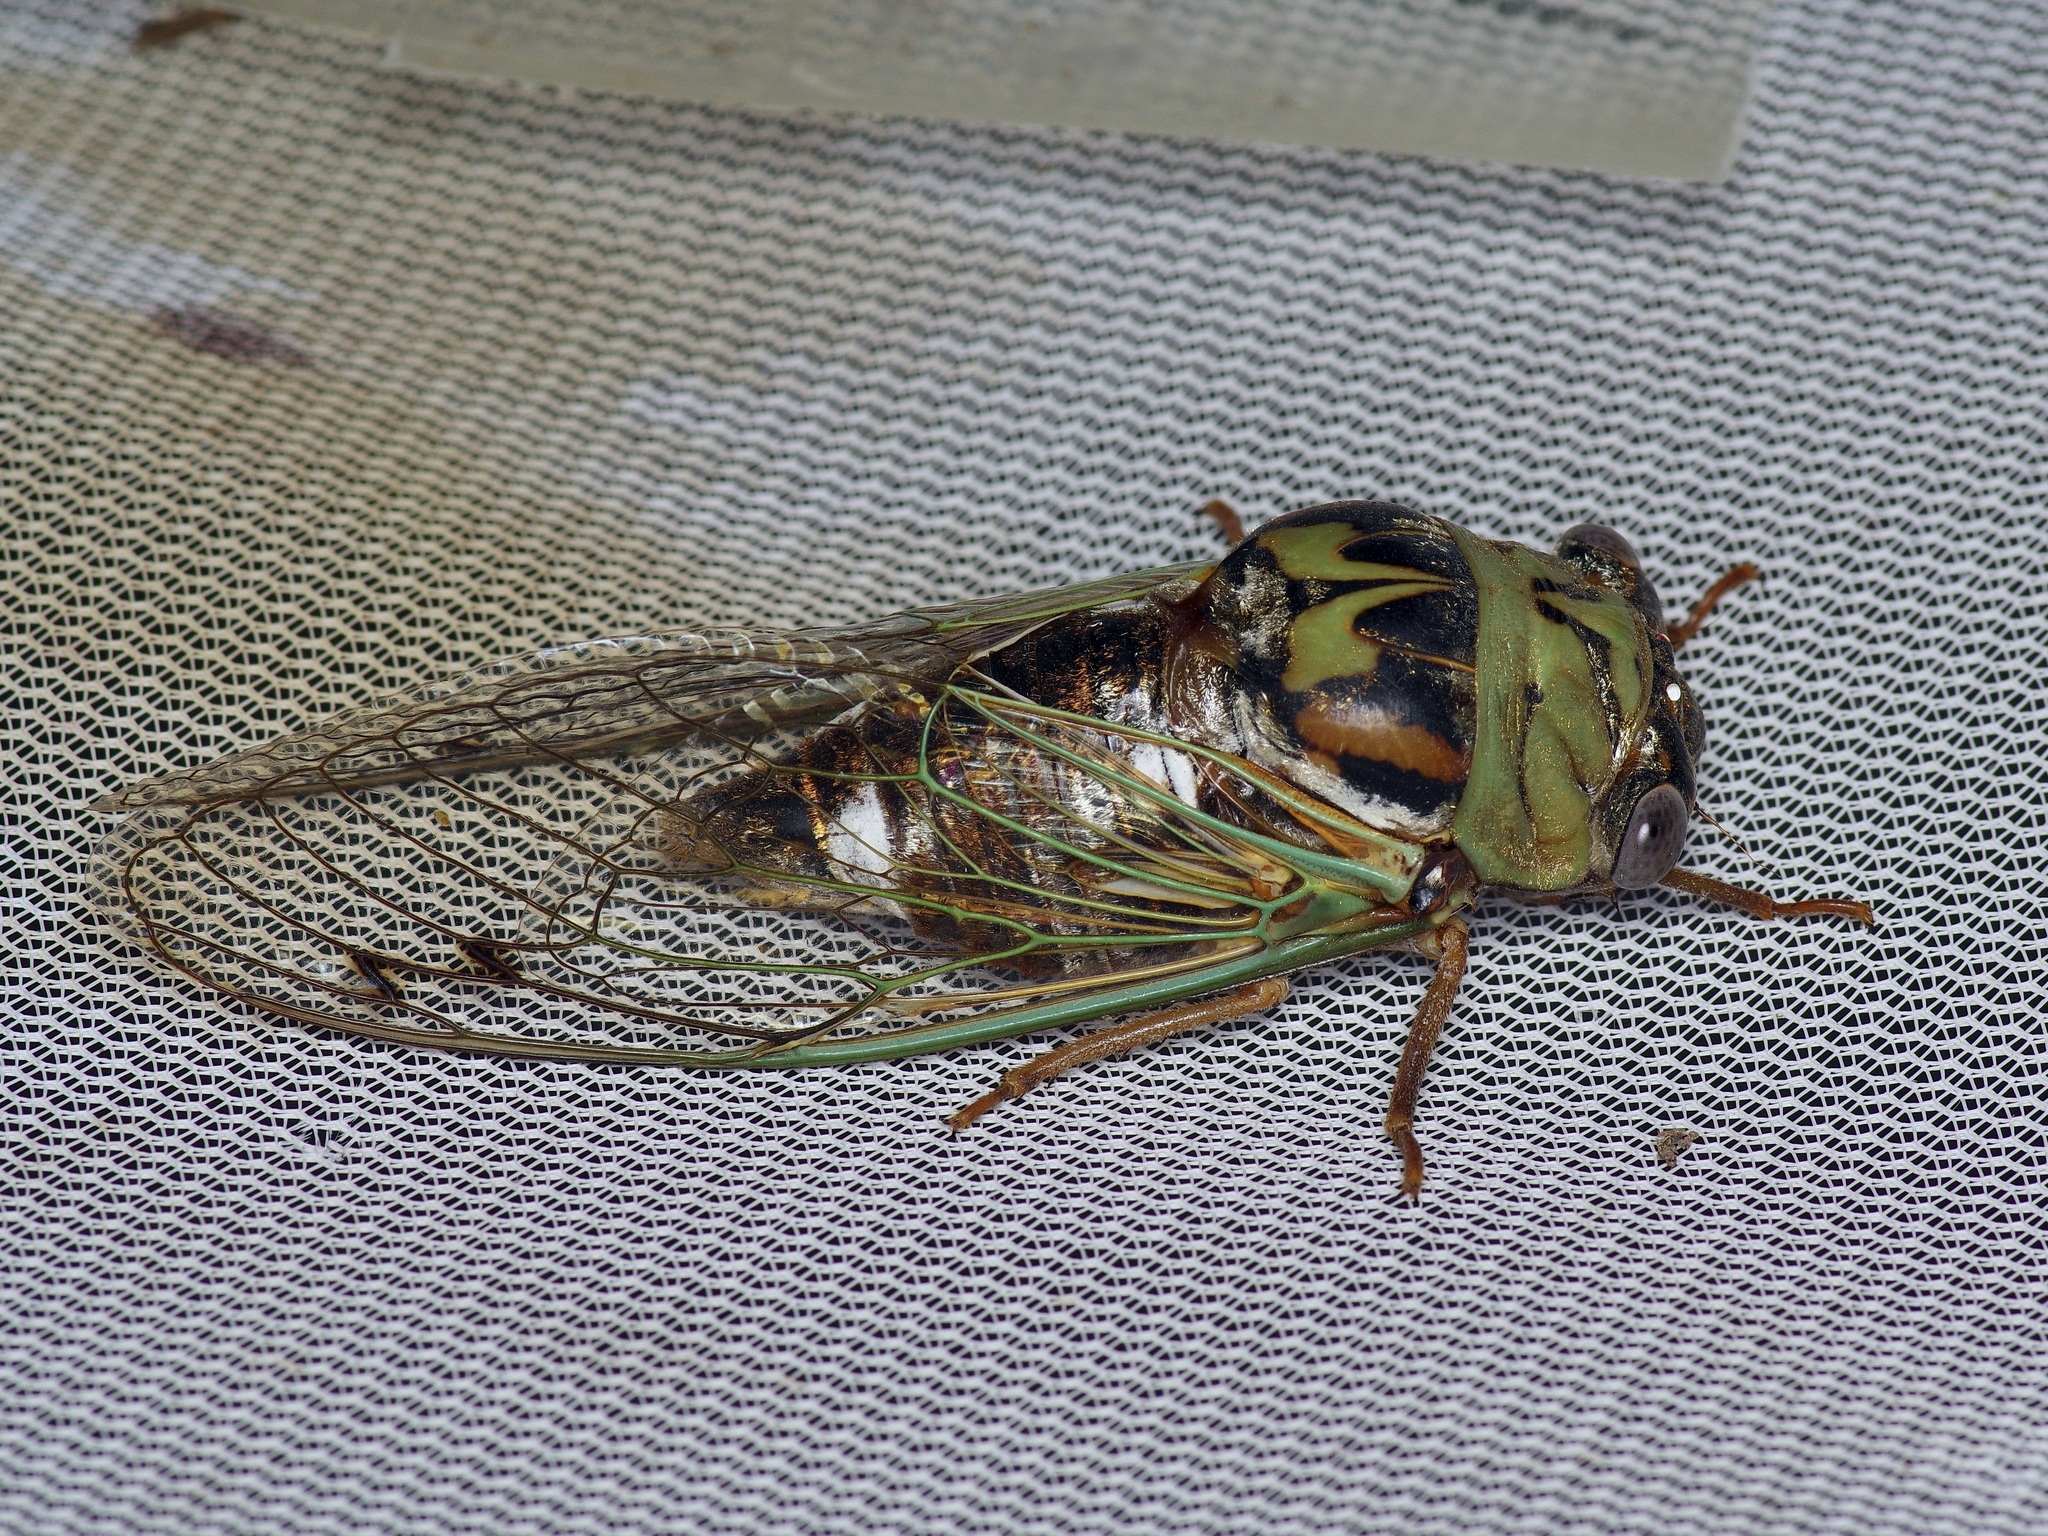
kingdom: Animalia
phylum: Arthropoda
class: Insecta
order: Hemiptera
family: Cicadidae
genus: Megatibicen
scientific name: Megatibicen resh
